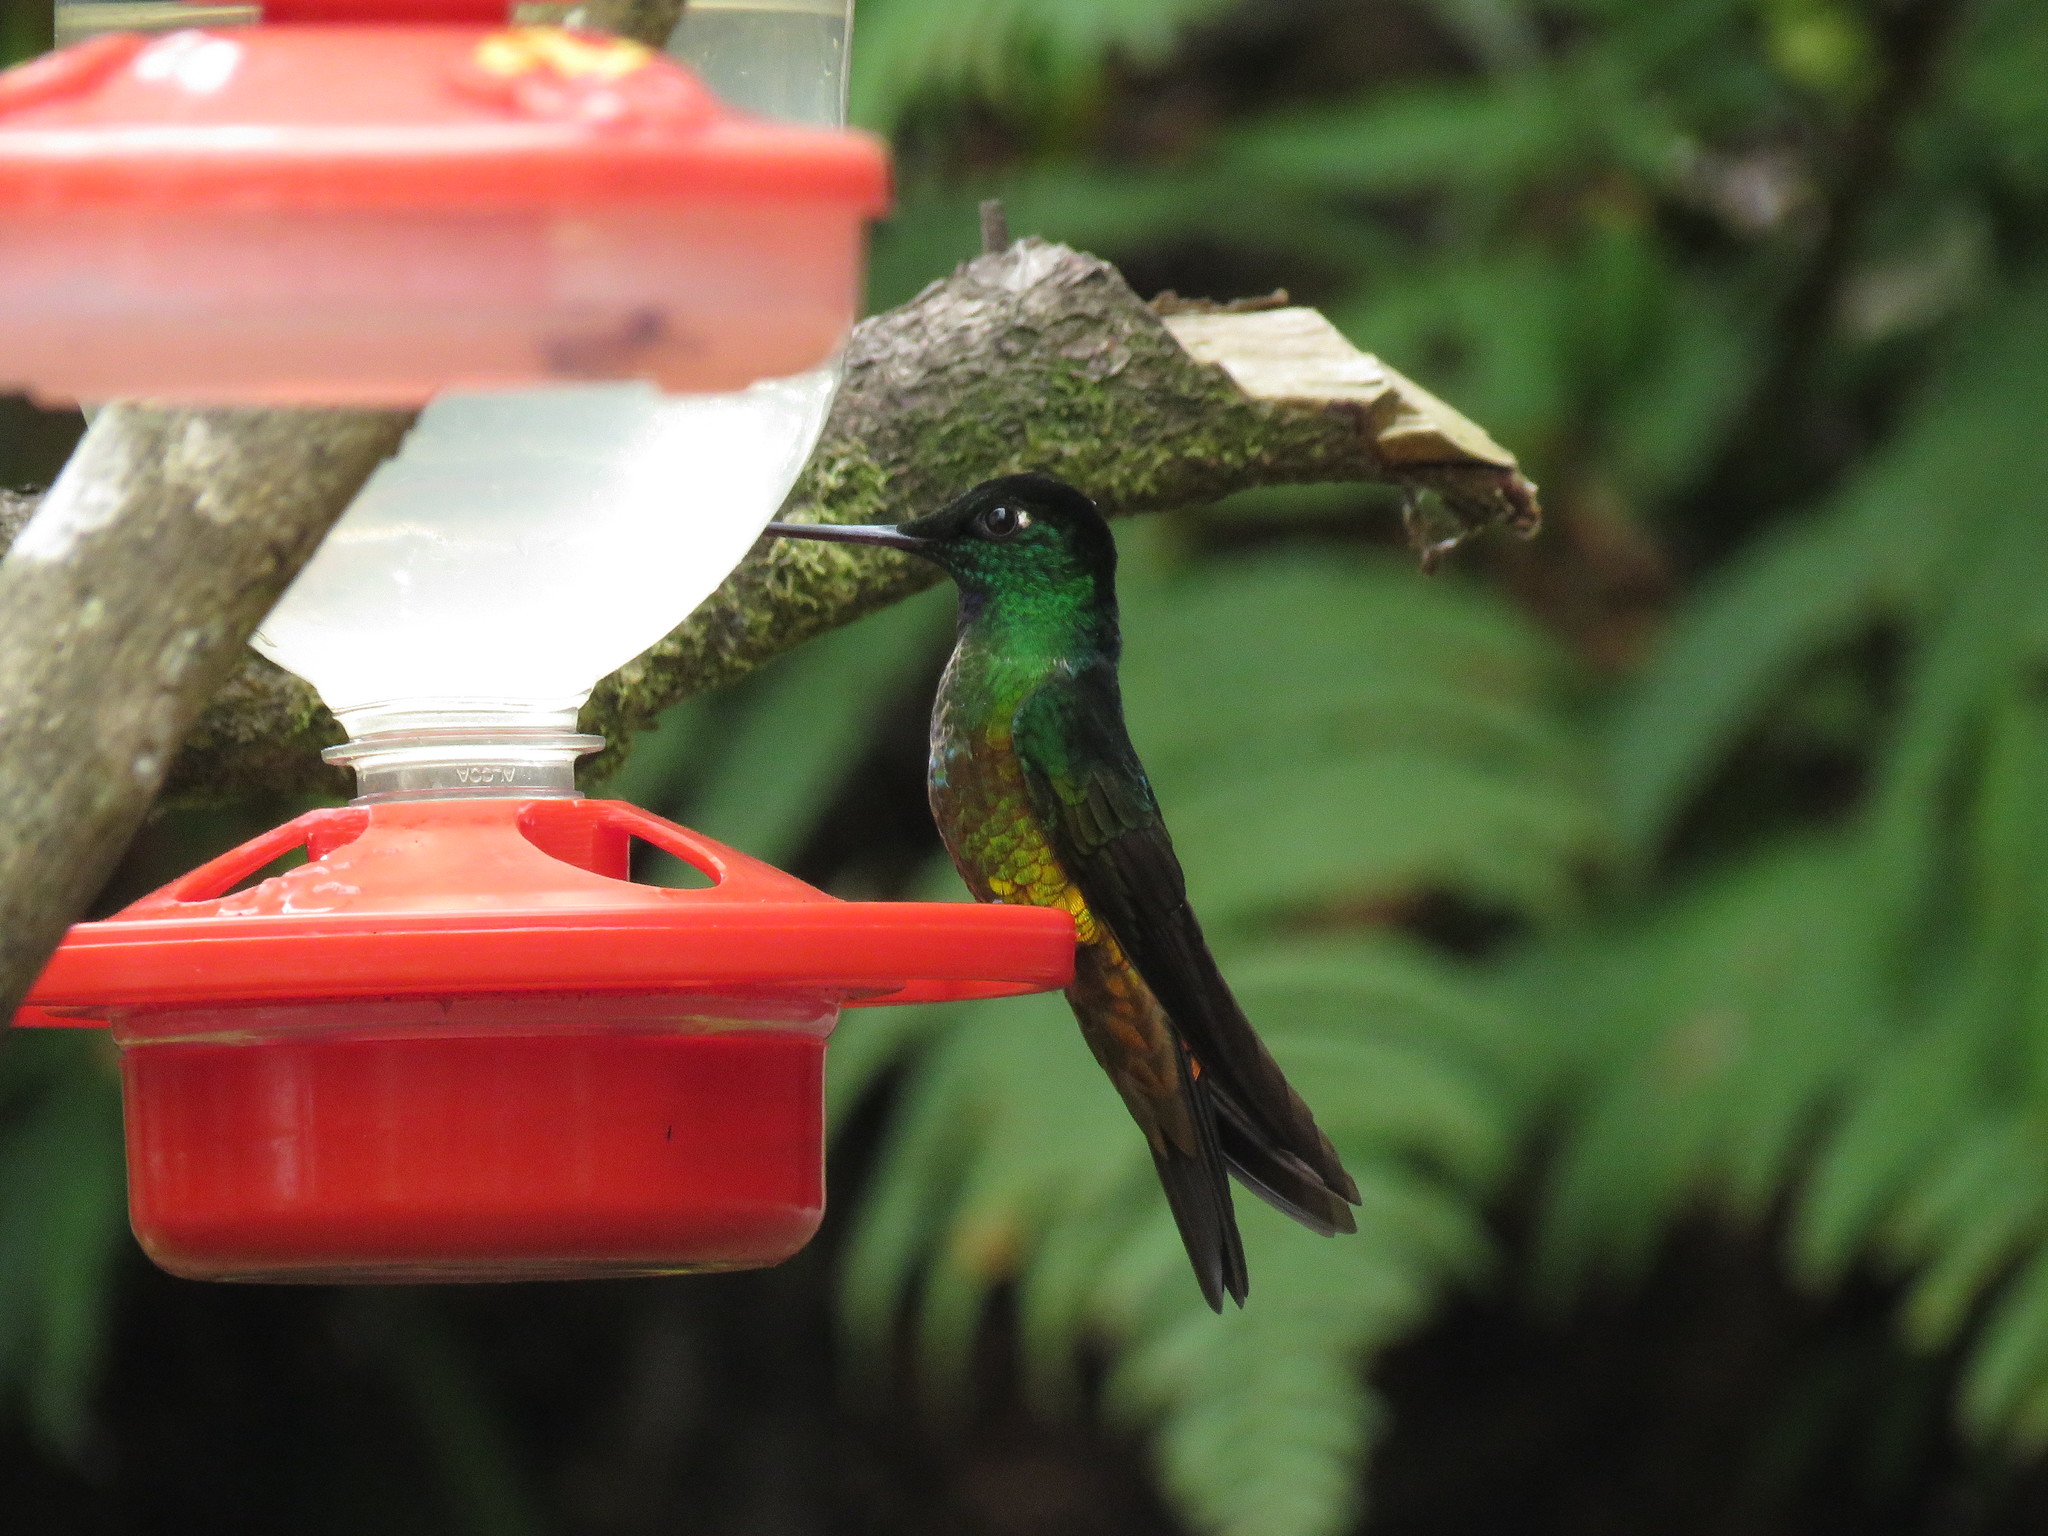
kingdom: Animalia
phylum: Chordata
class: Aves
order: Apodiformes
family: Trochilidae
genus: Coeligena
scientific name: Coeligena bonapartei
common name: Golden-bellied starfrontlet
